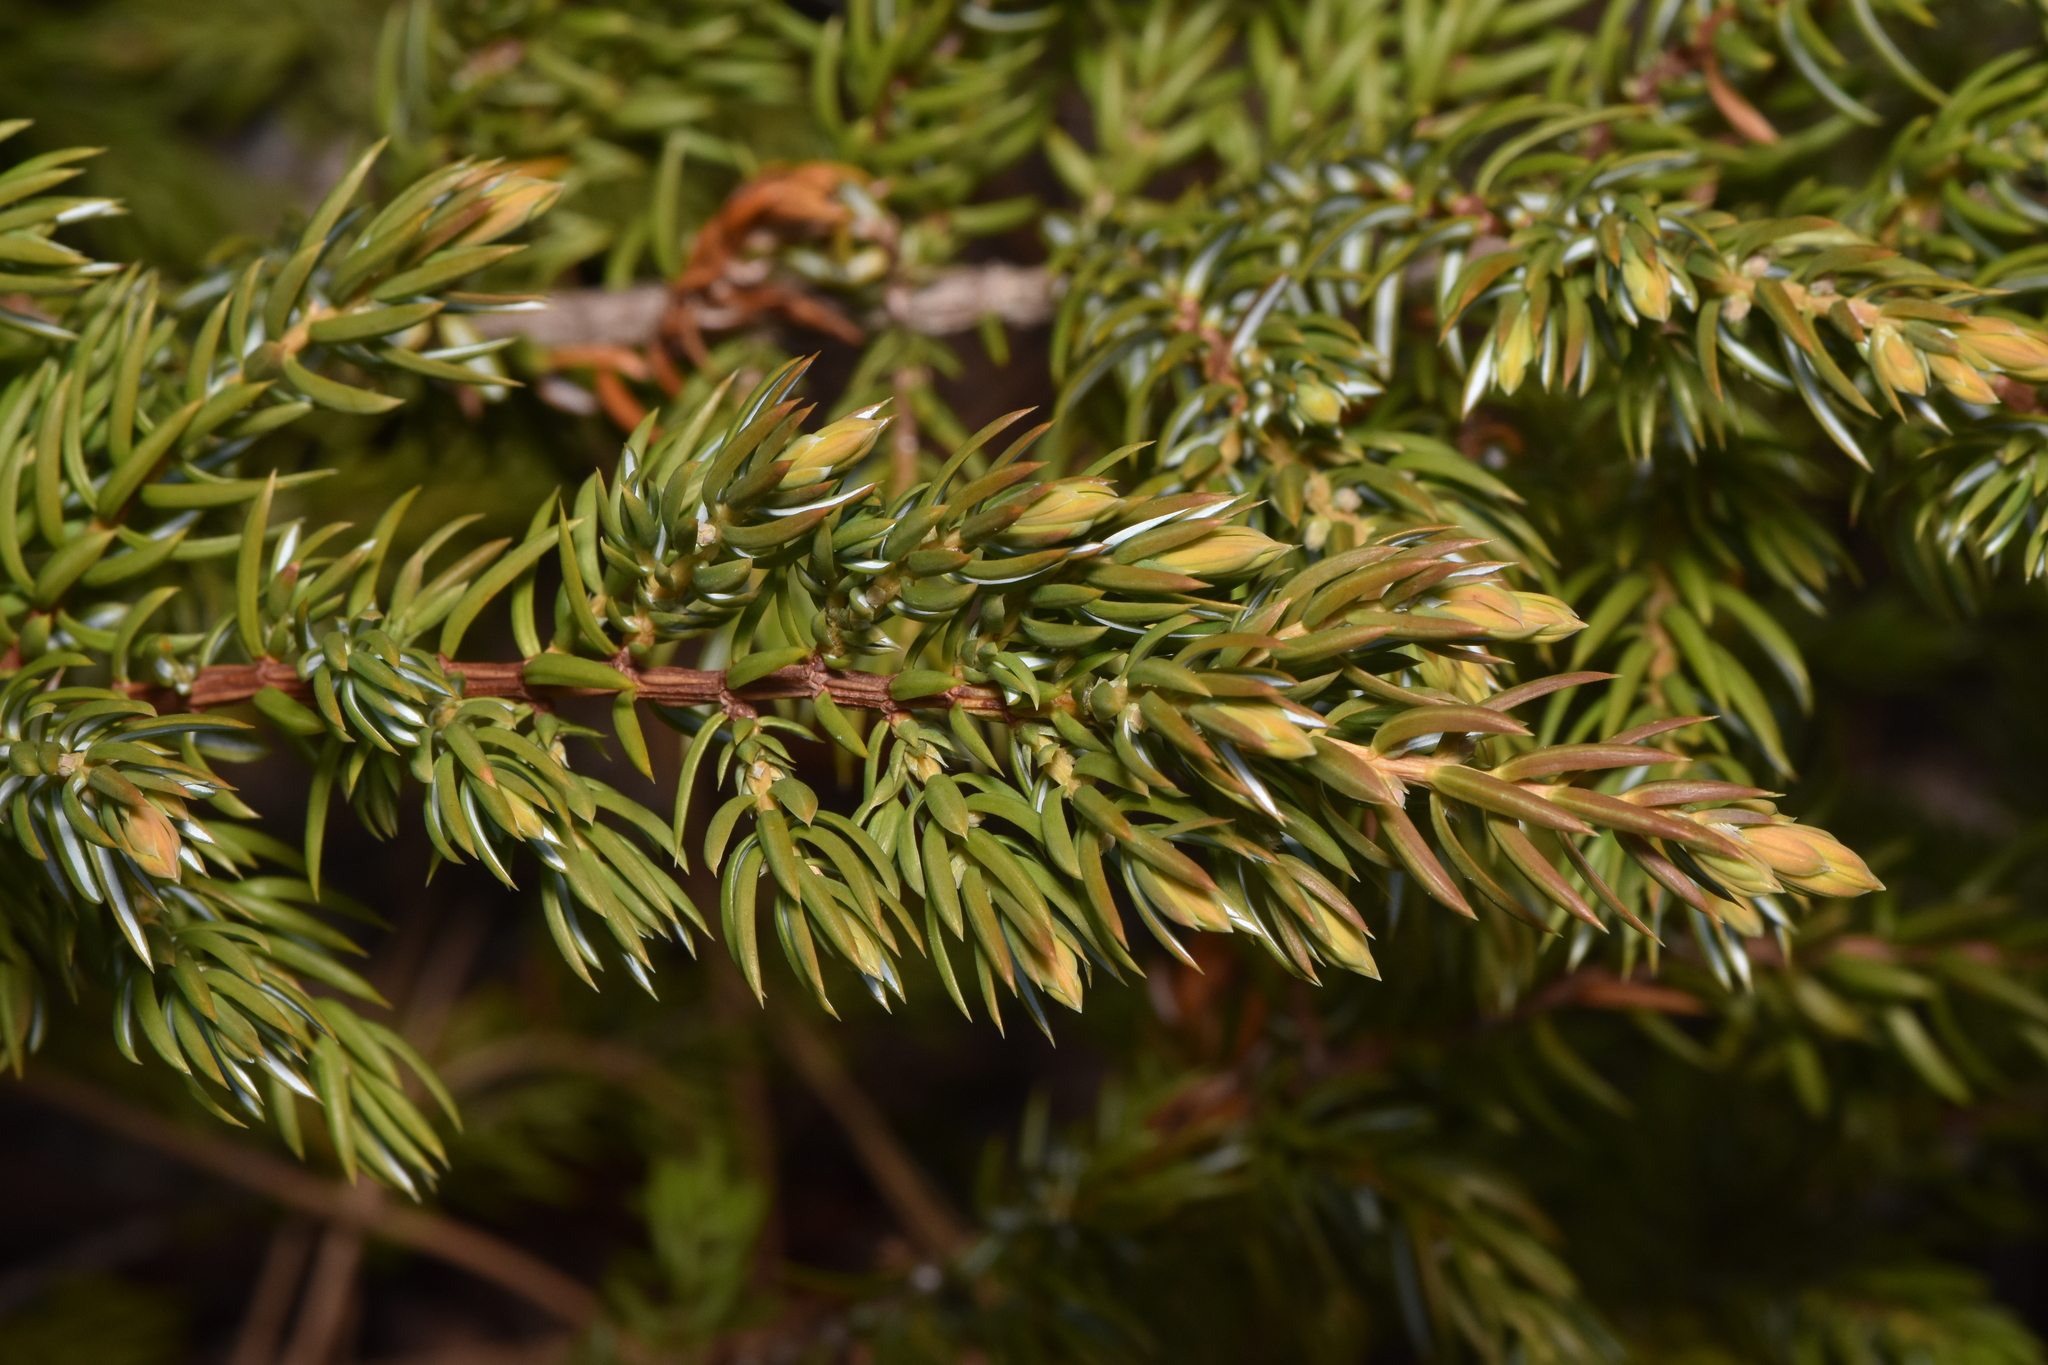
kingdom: Plantae
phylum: Tracheophyta
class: Pinopsida
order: Pinales
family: Cupressaceae
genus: Juniperus
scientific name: Juniperus communis
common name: Common juniper
